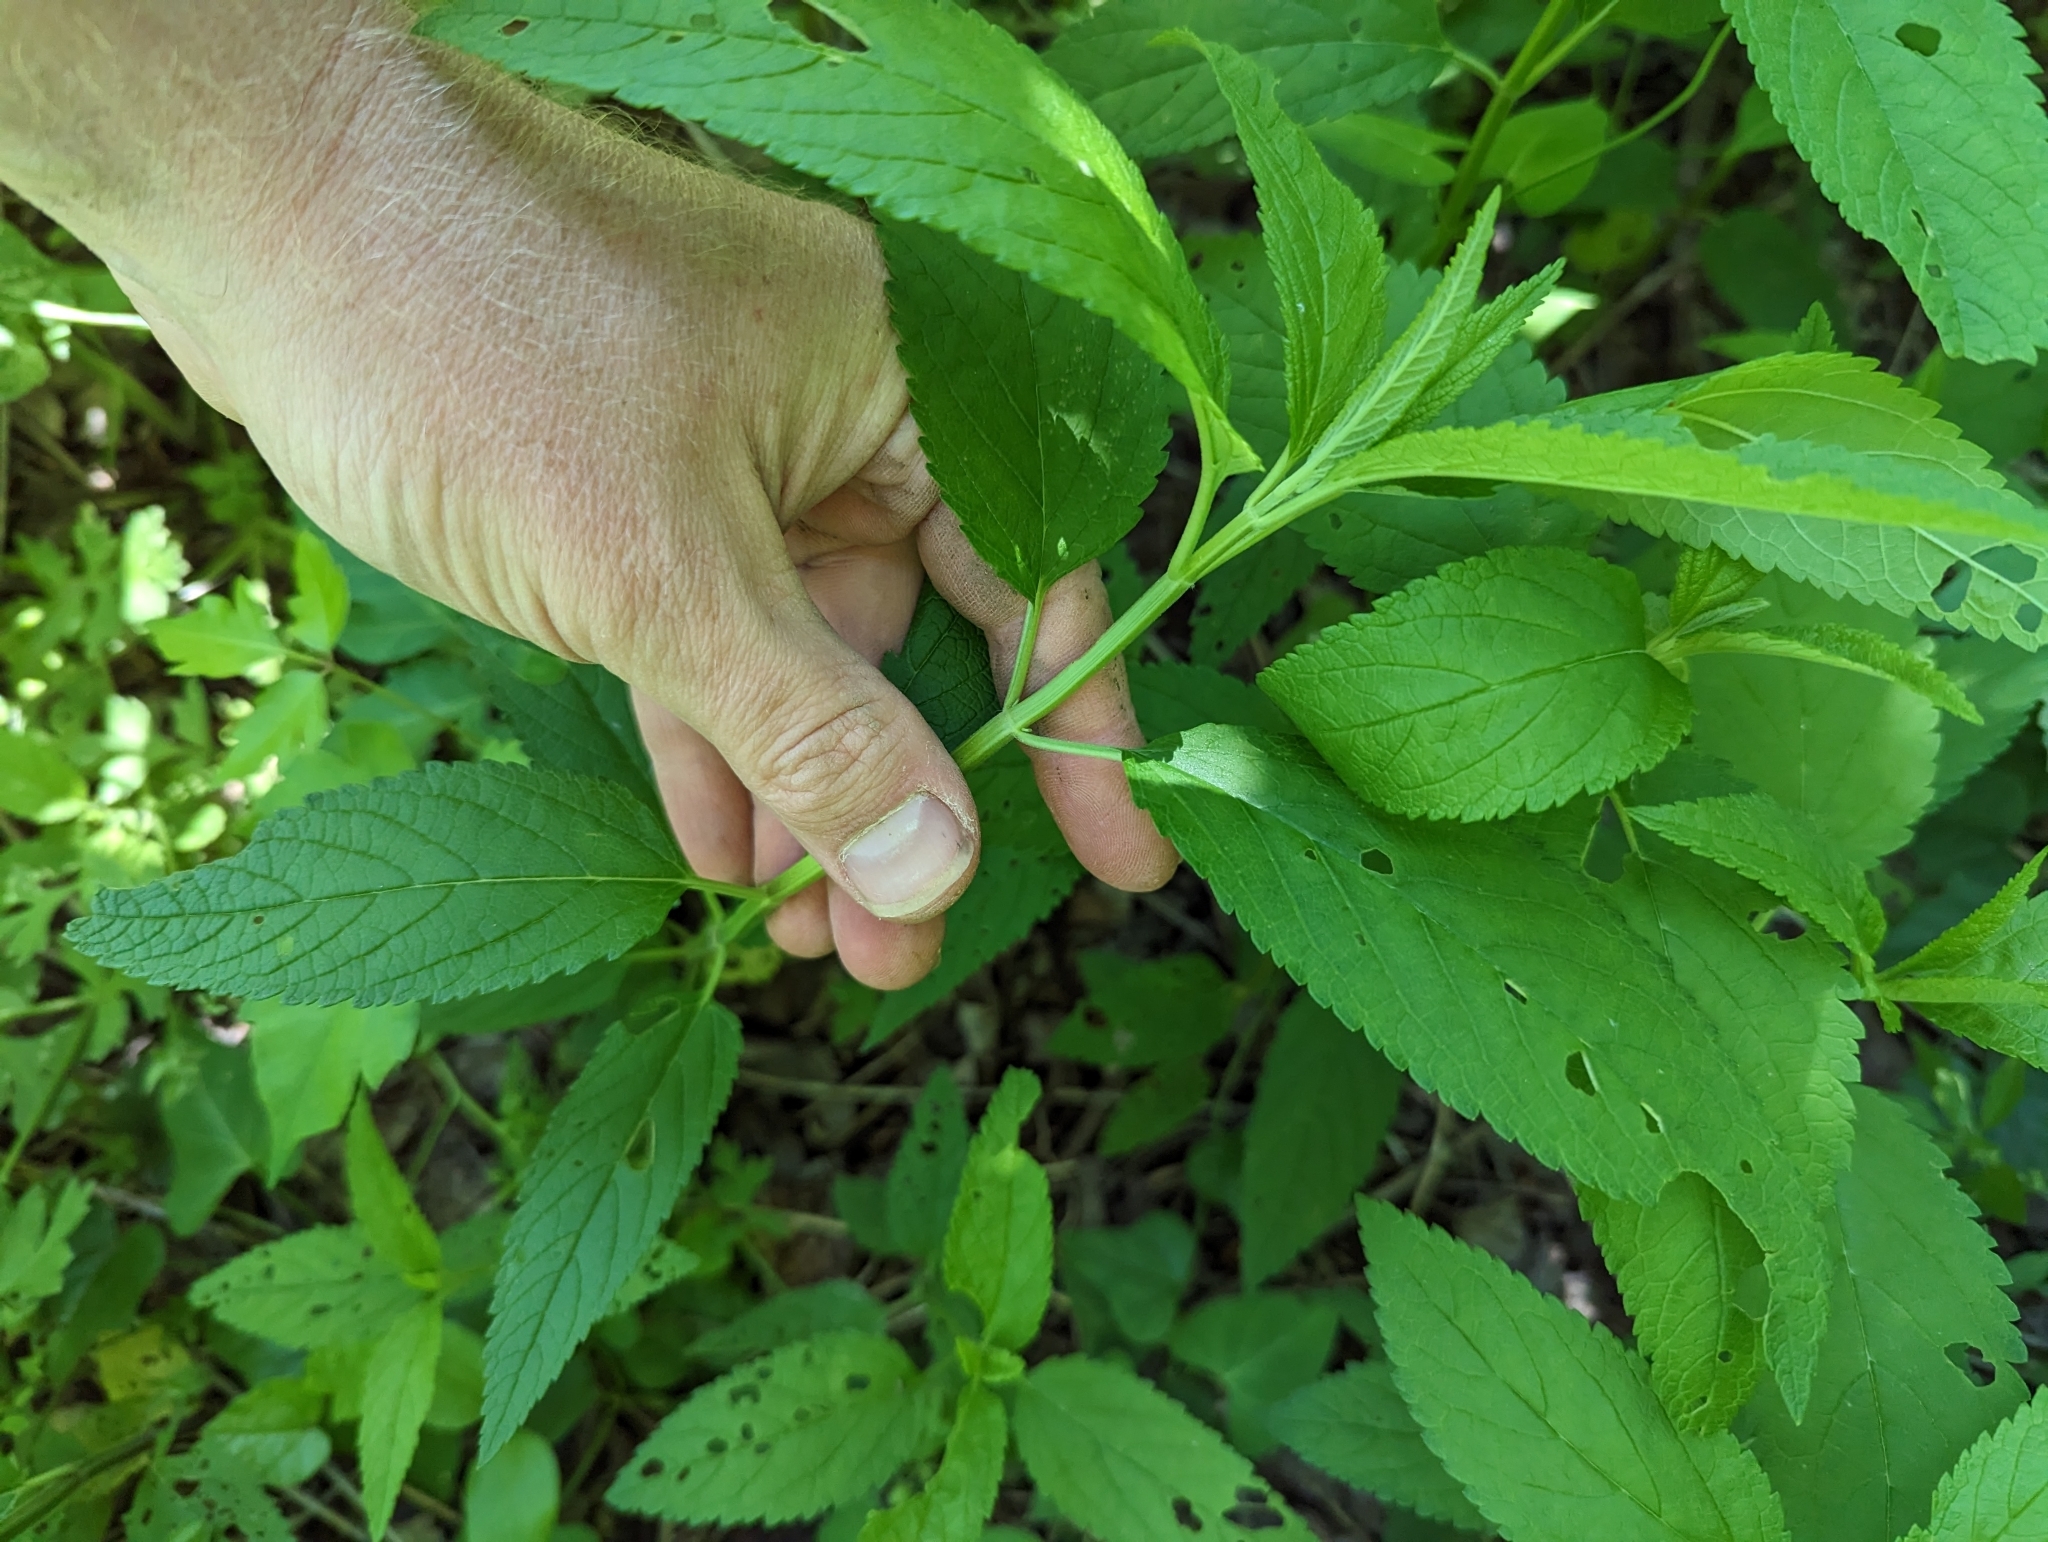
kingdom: Plantae
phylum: Tracheophyta
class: Magnoliopsida
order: Lamiales
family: Lamiaceae
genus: Teucrium
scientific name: Teucrium canadense
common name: American germander
